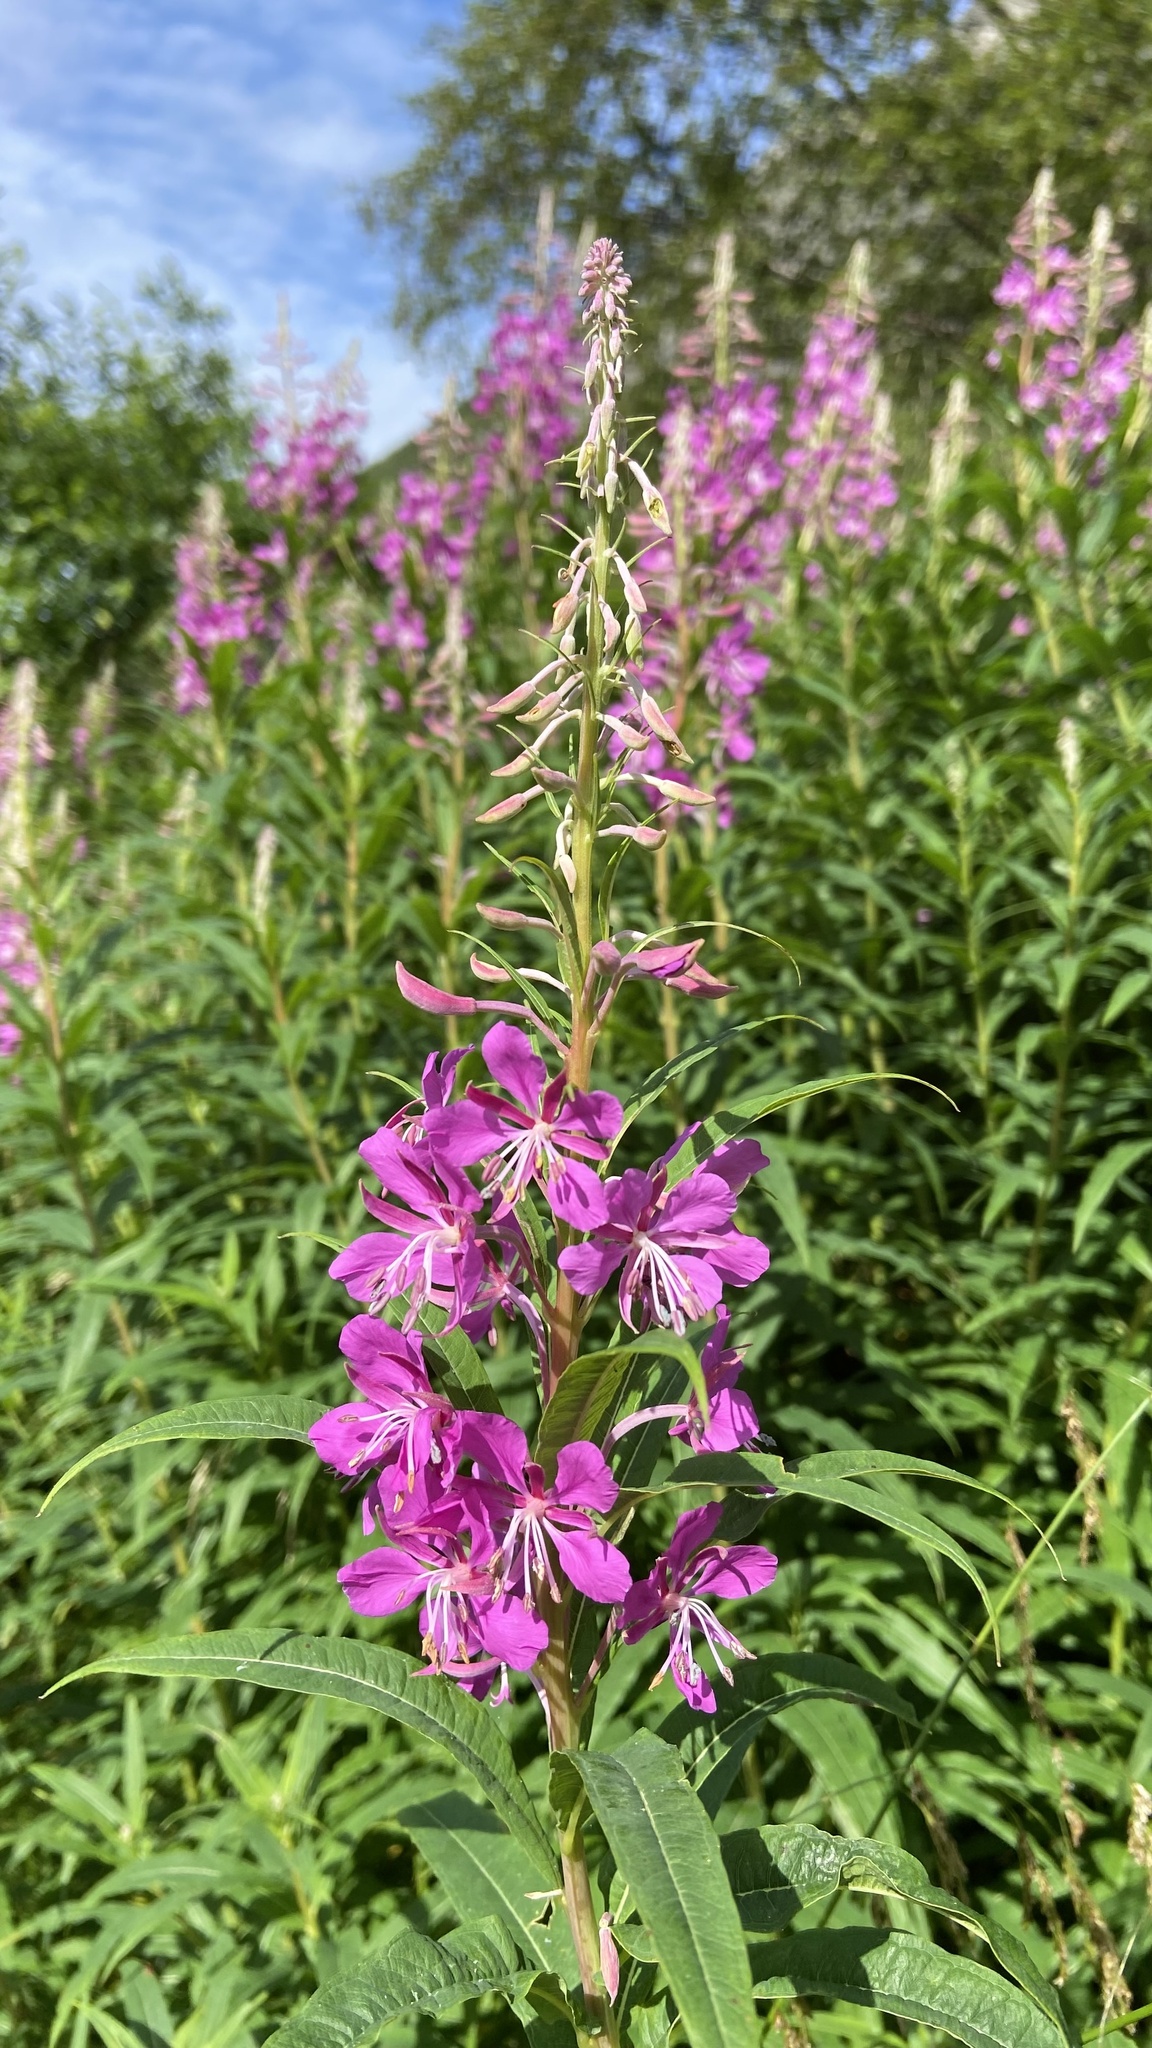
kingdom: Plantae
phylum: Tracheophyta
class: Magnoliopsida
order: Myrtales
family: Onagraceae
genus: Chamaenerion
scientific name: Chamaenerion angustifolium
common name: Fireweed
